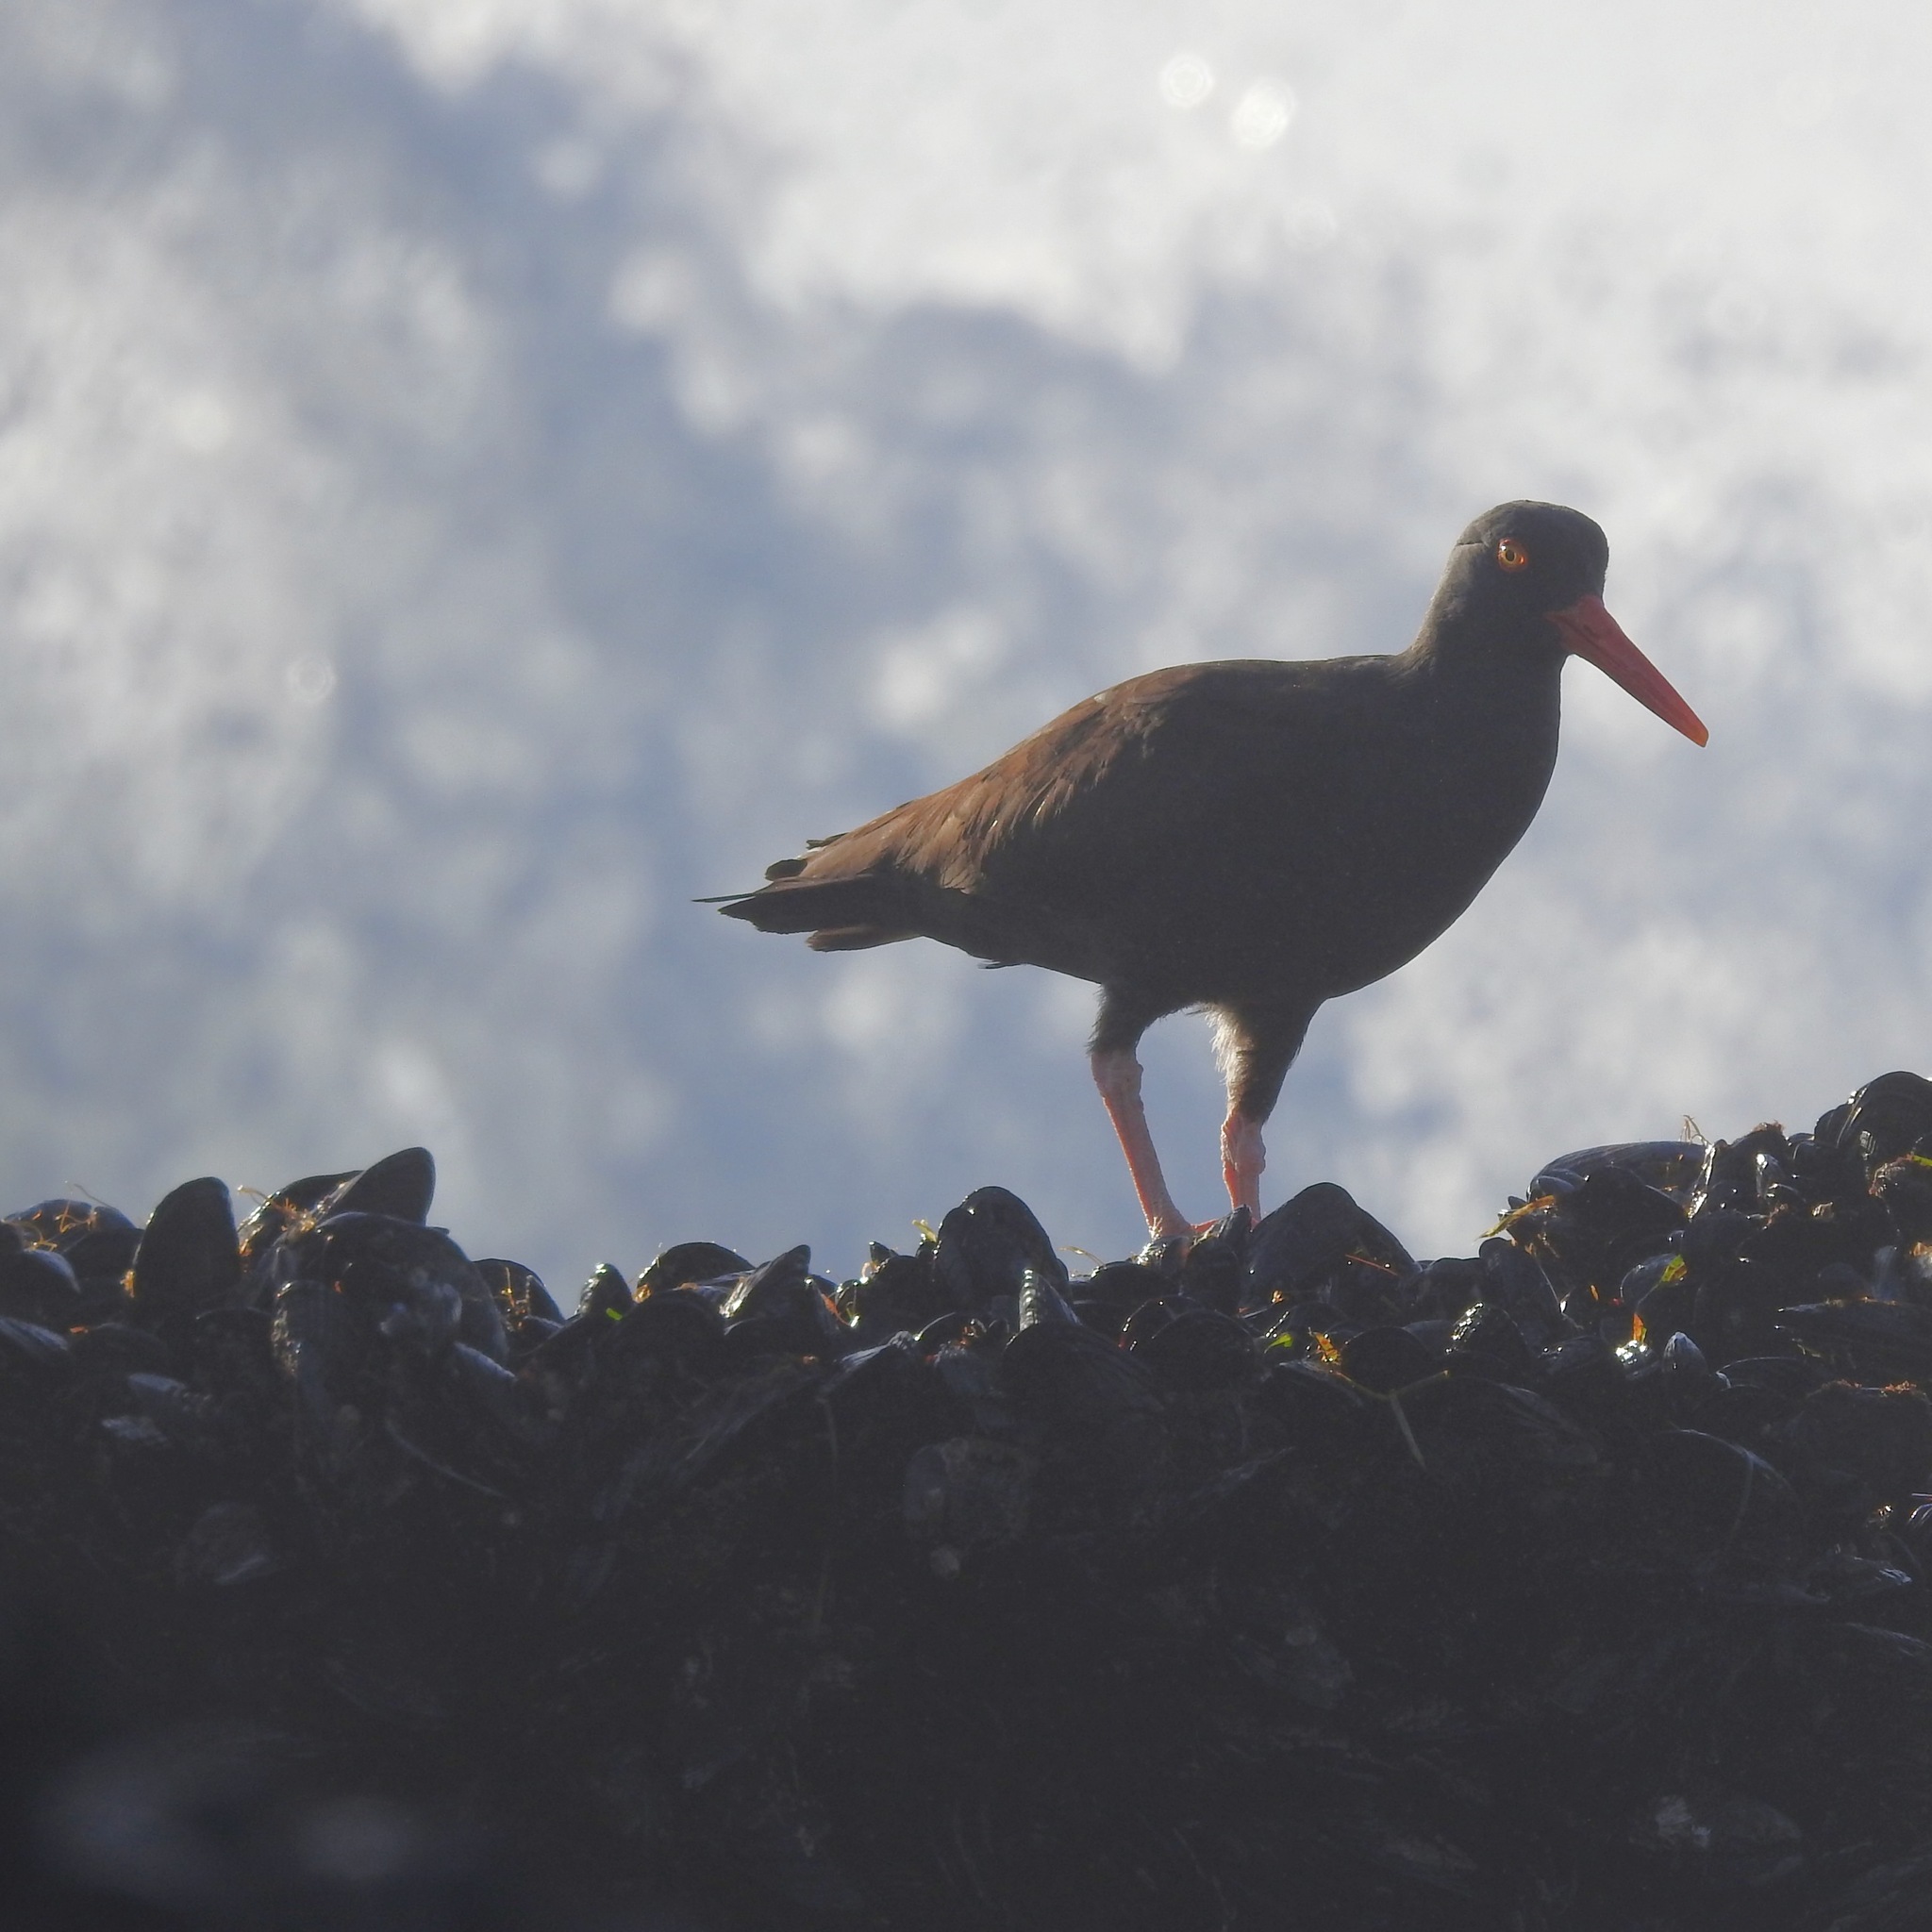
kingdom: Animalia
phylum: Chordata
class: Aves
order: Charadriiformes
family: Haematopodidae
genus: Haematopus
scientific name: Haematopus bachmani
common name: Black oystercatcher
